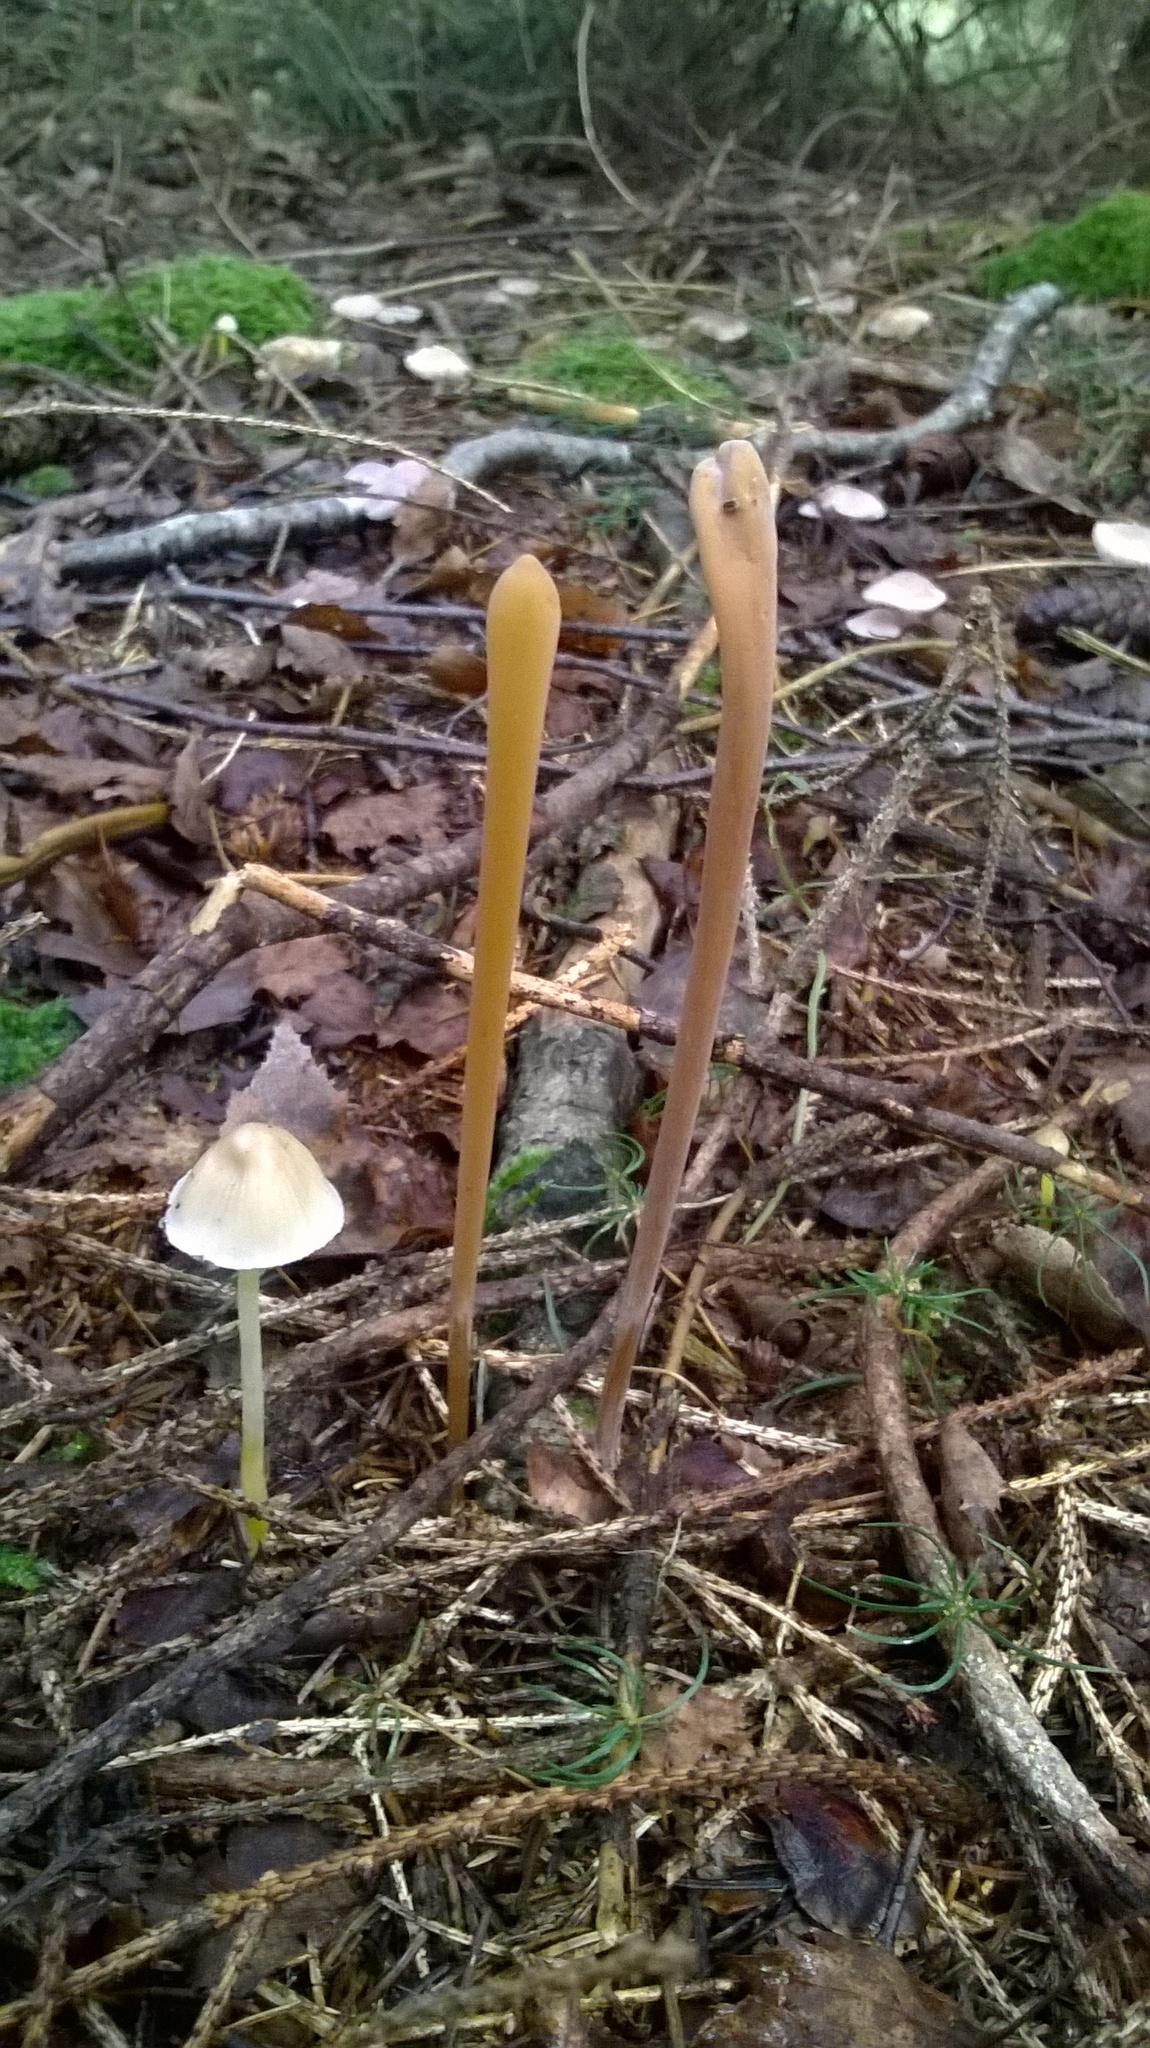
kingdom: Fungi
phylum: Basidiomycota
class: Agaricomycetes
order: Agaricales
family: Typhulaceae
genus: Typhula
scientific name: Typhula fistulosa
